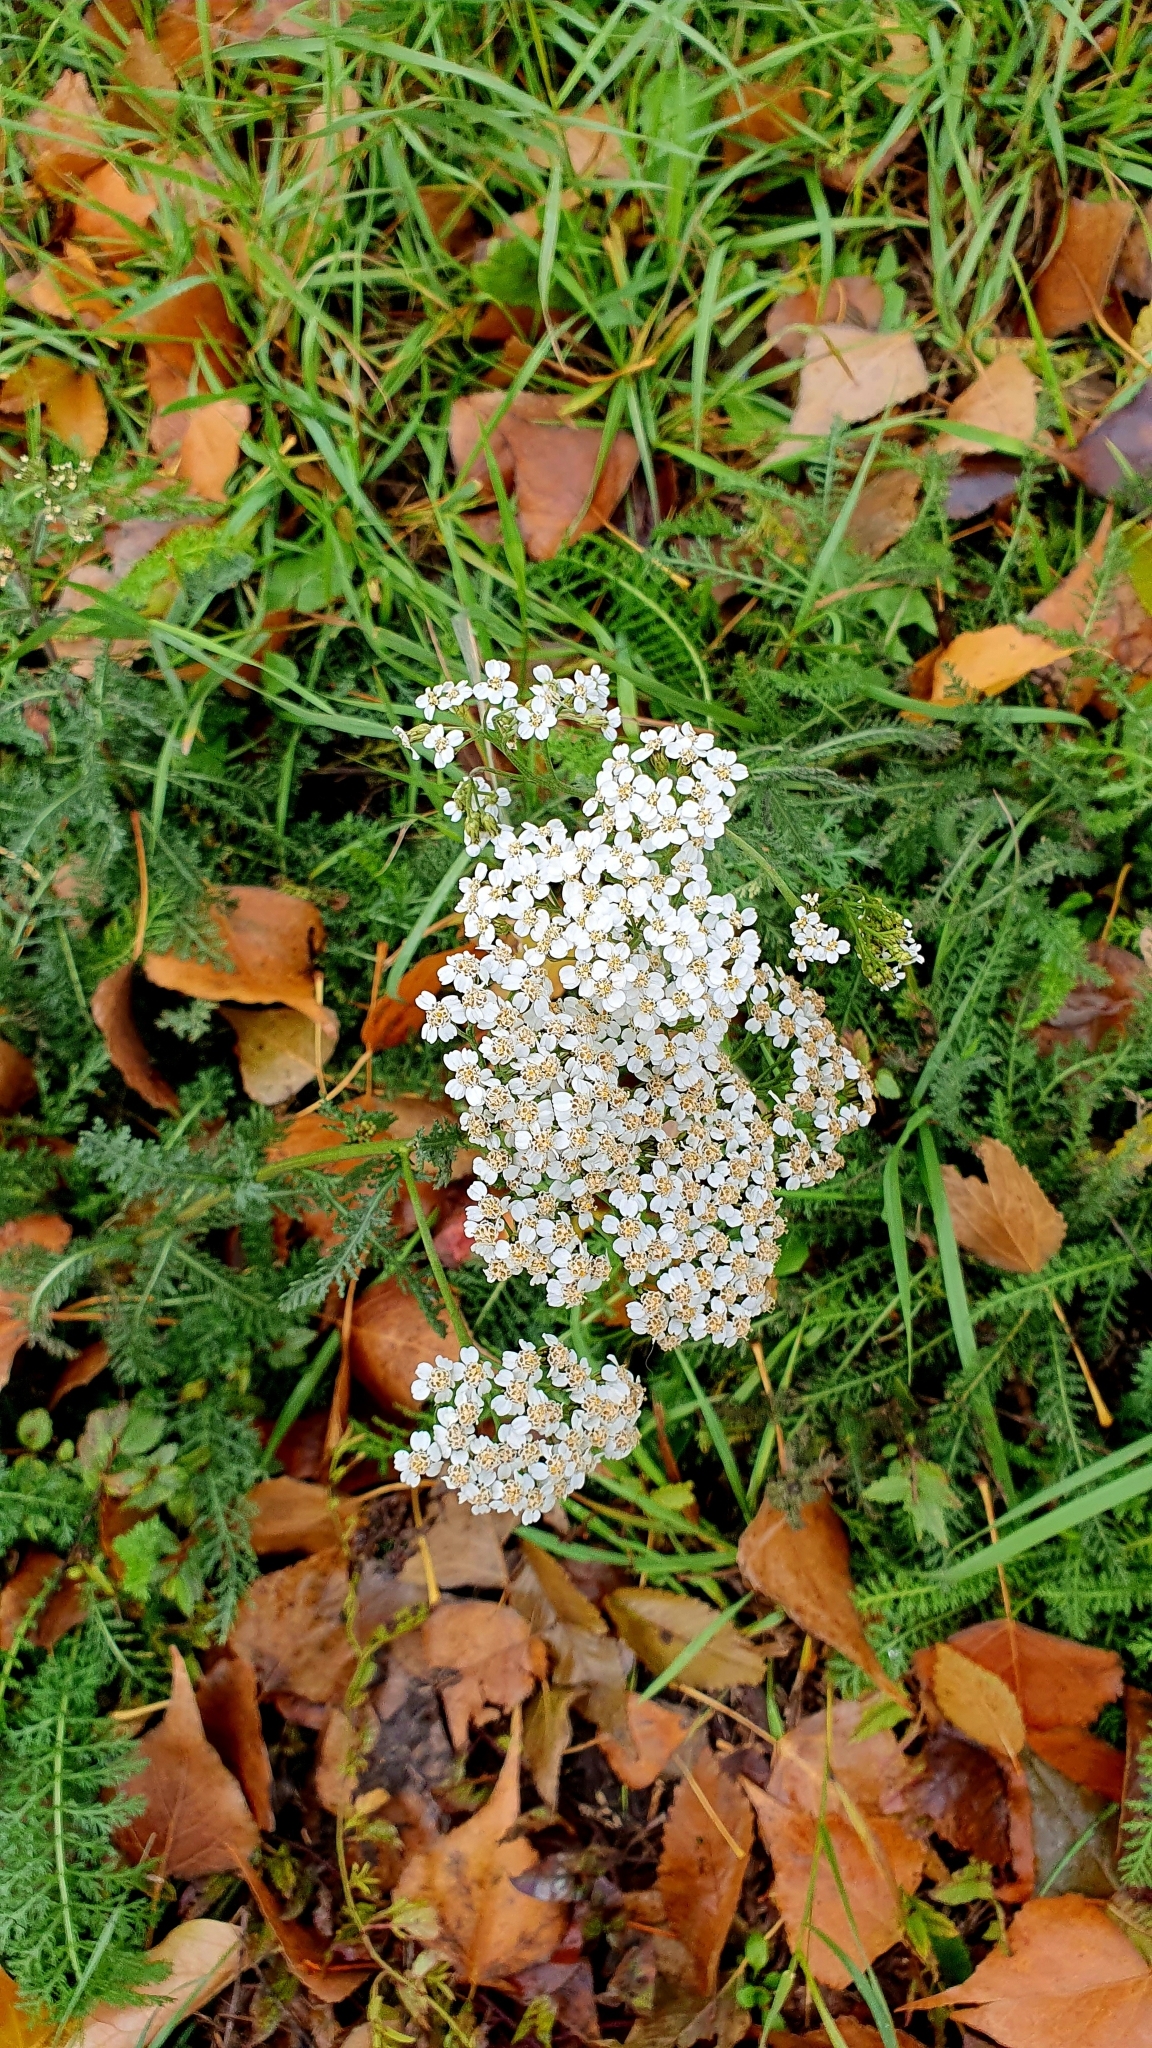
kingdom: Plantae
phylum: Tracheophyta
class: Magnoliopsida
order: Asterales
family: Asteraceae
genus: Achillea
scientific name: Achillea millefolium
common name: Yarrow
